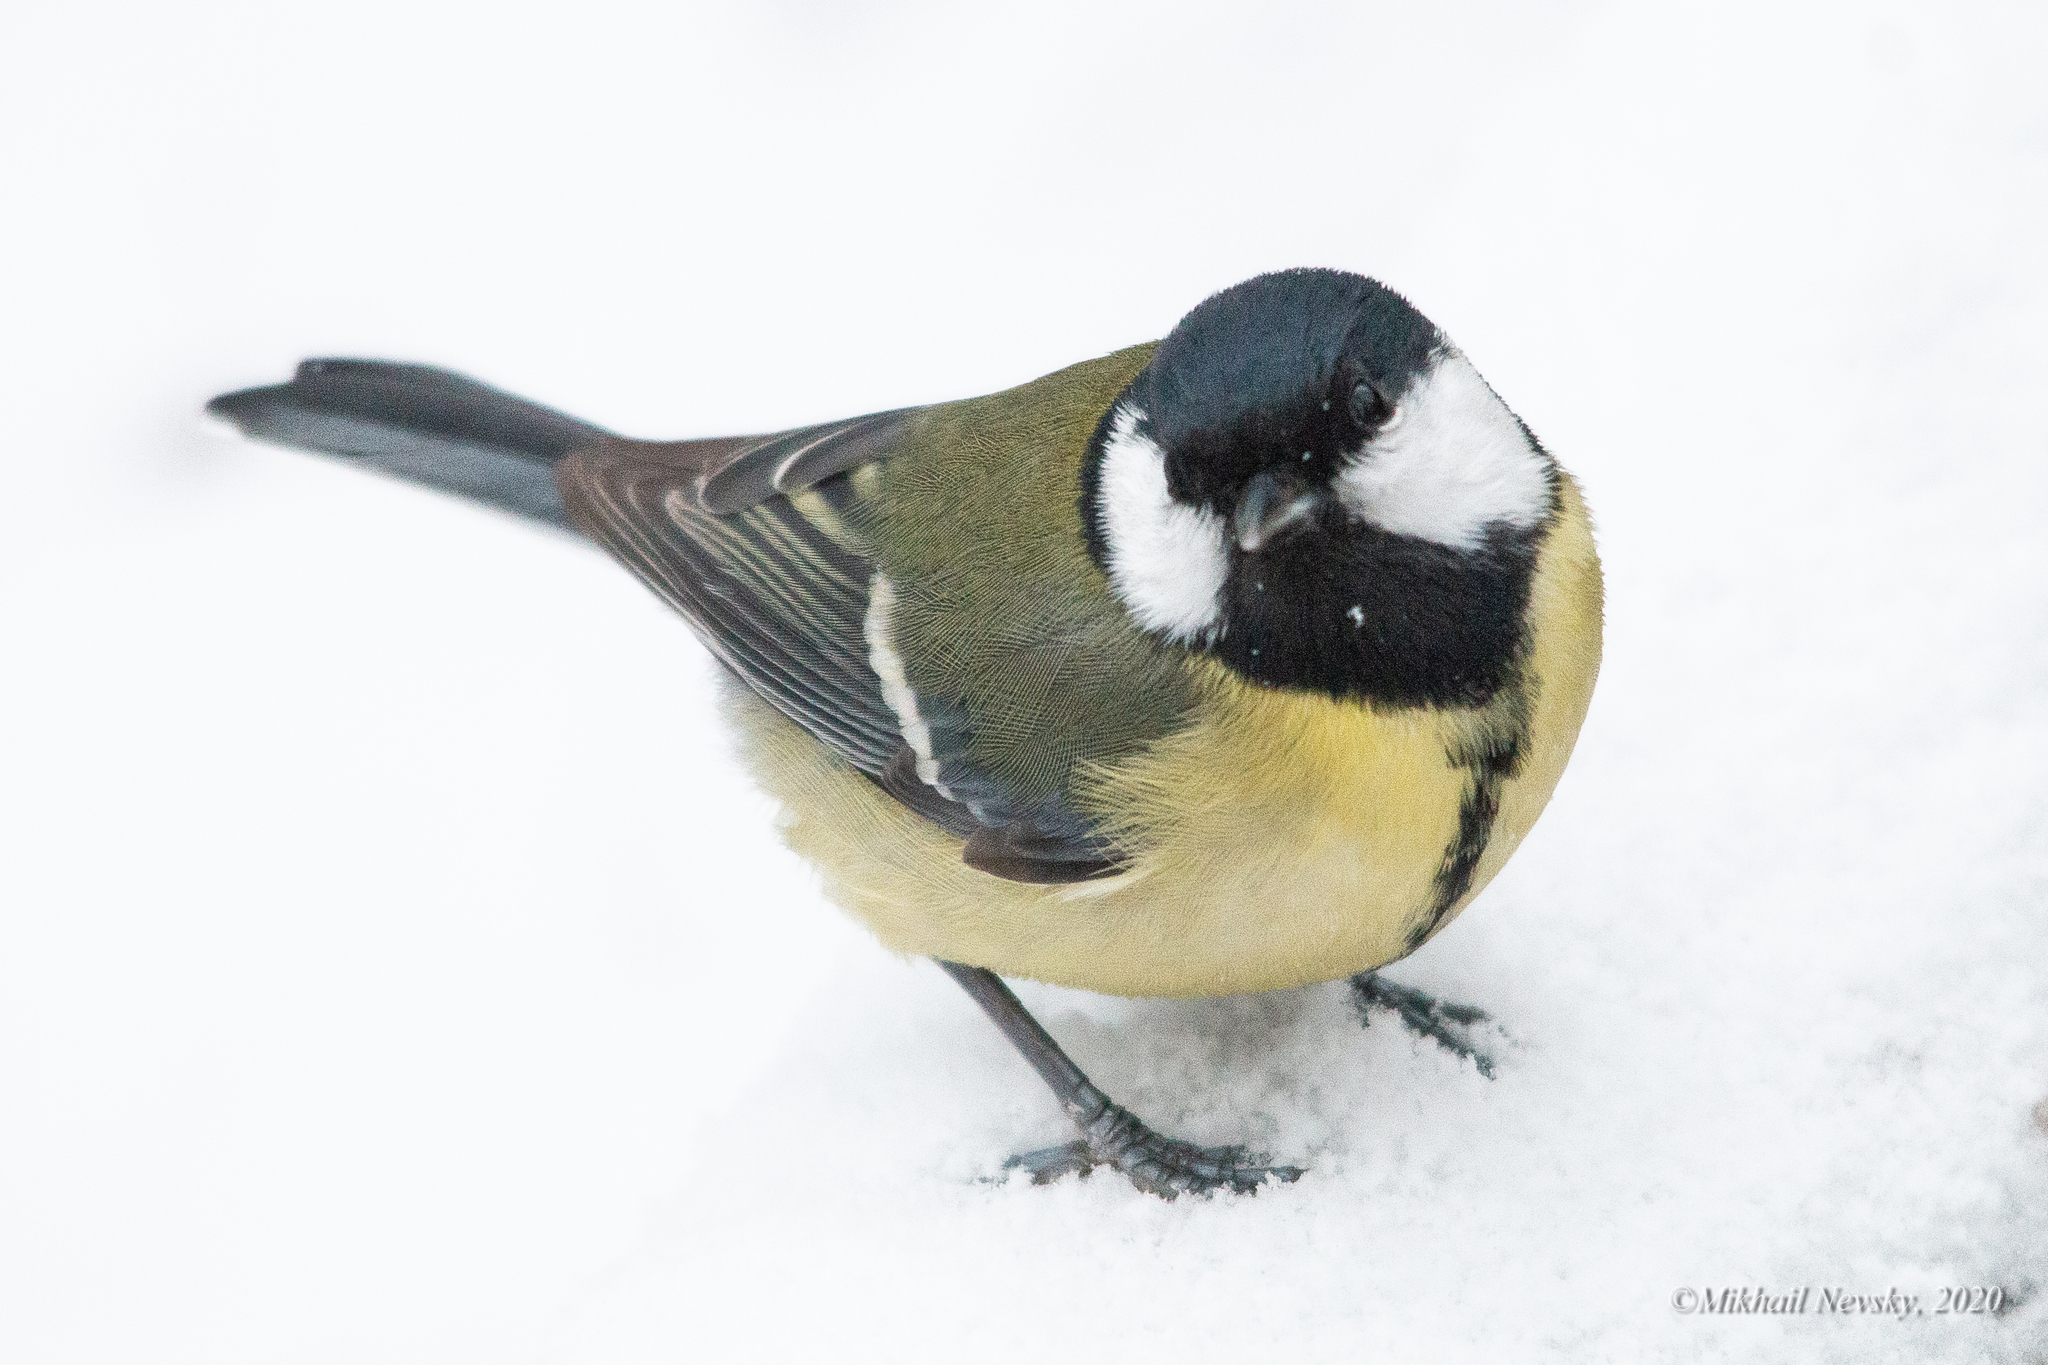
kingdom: Animalia
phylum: Chordata
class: Aves
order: Passeriformes
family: Paridae
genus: Parus
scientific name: Parus major
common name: Great tit
